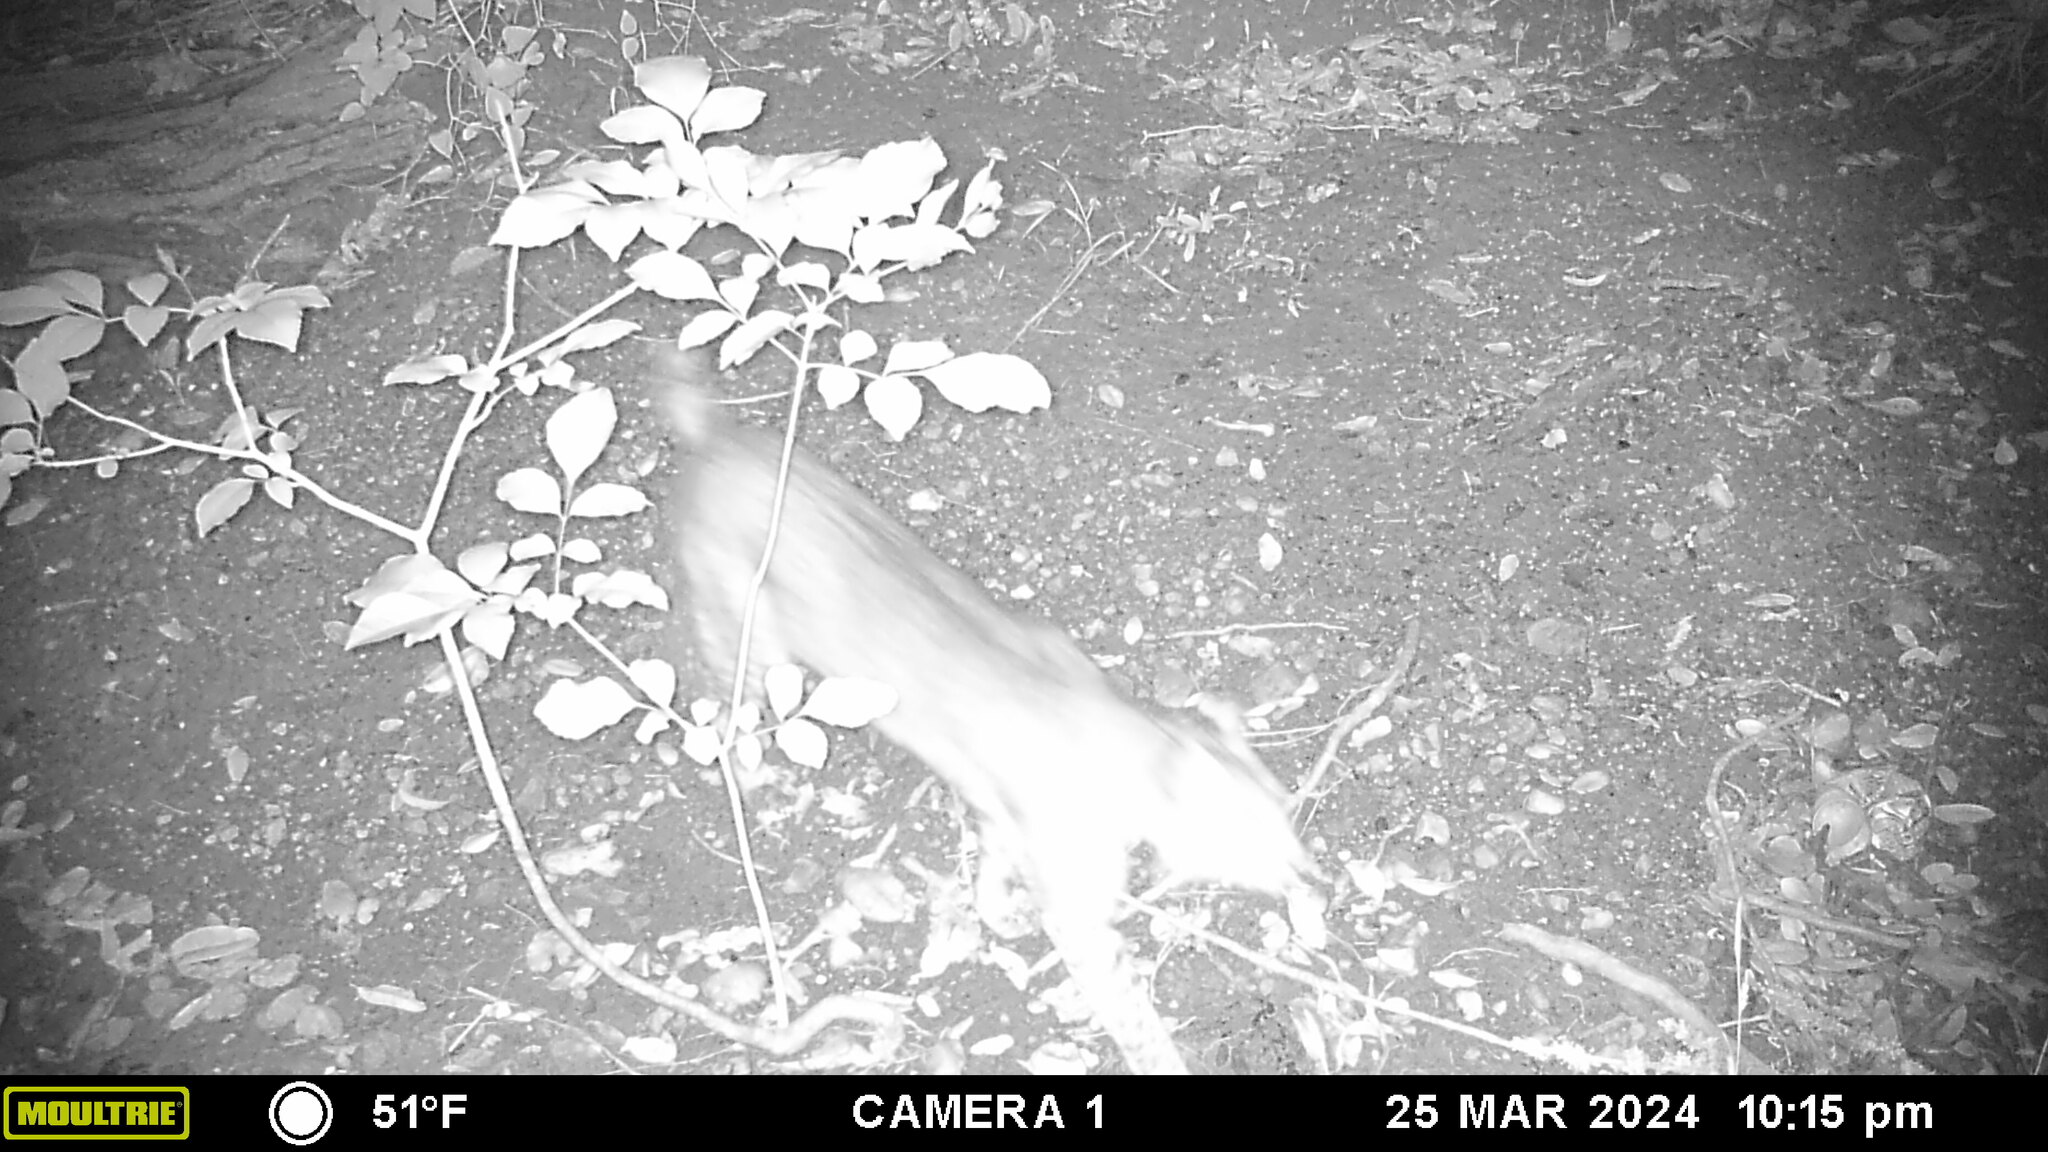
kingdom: Animalia
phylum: Chordata
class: Mammalia
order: Carnivora
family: Felidae
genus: Lynx
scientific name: Lynx rufus
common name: Bobcat
